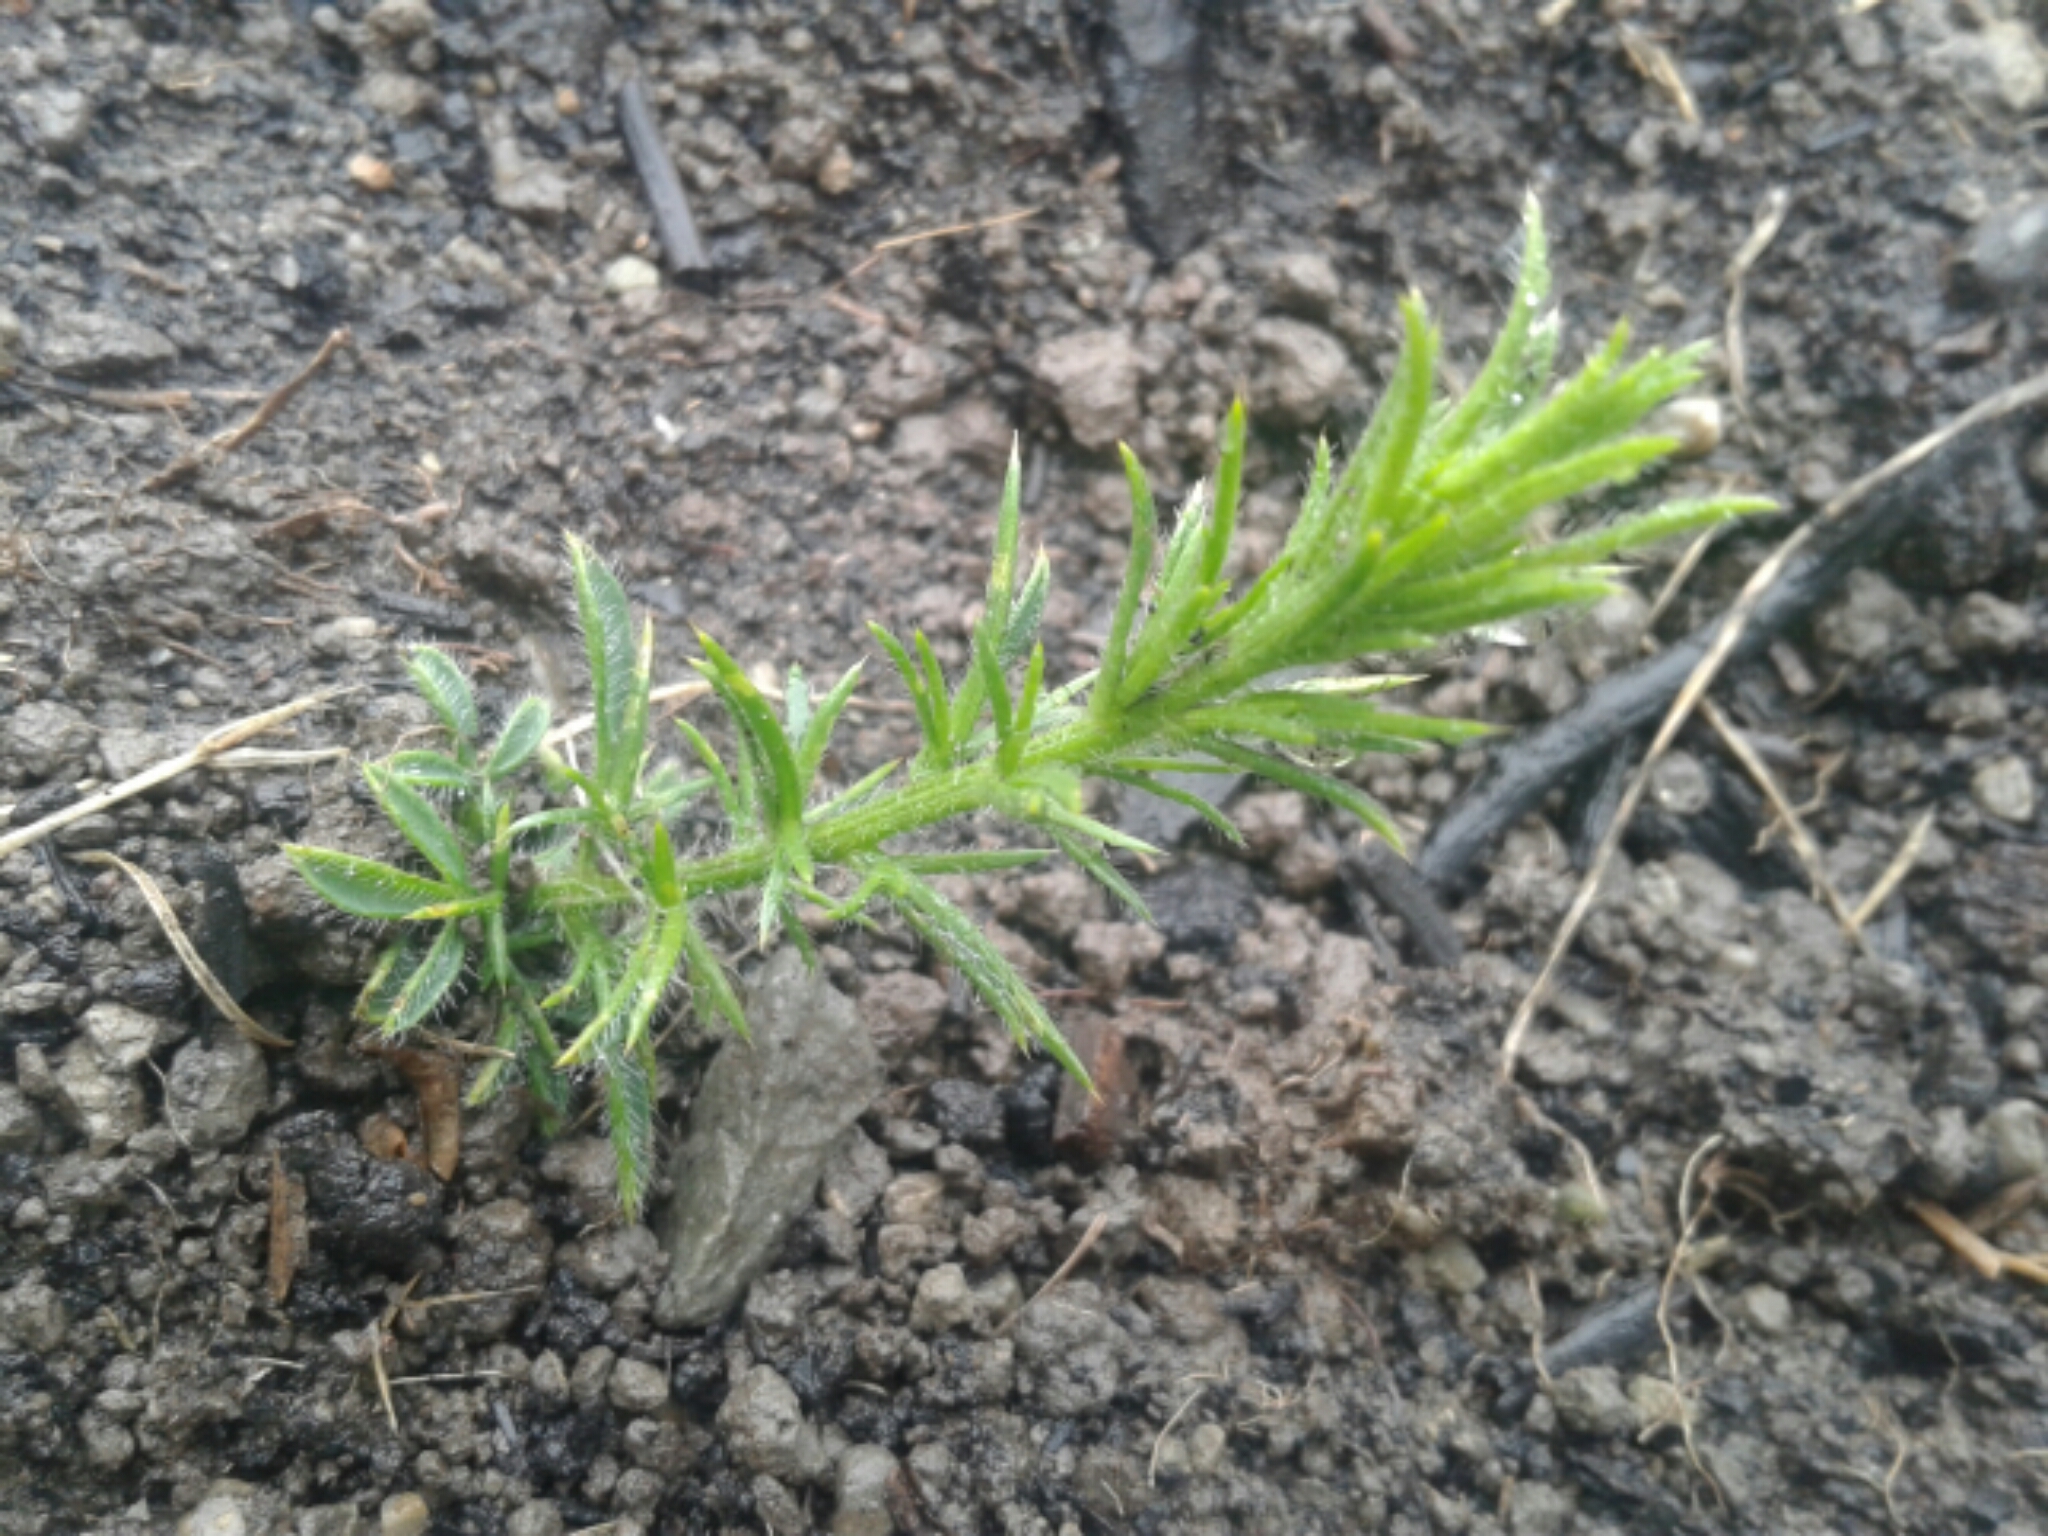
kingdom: Plantae
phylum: Tracheophyta
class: Magnoliopsida
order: Fabales
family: Fabaceae
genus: Ulex
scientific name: Ulex europaeus
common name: Common gorse
